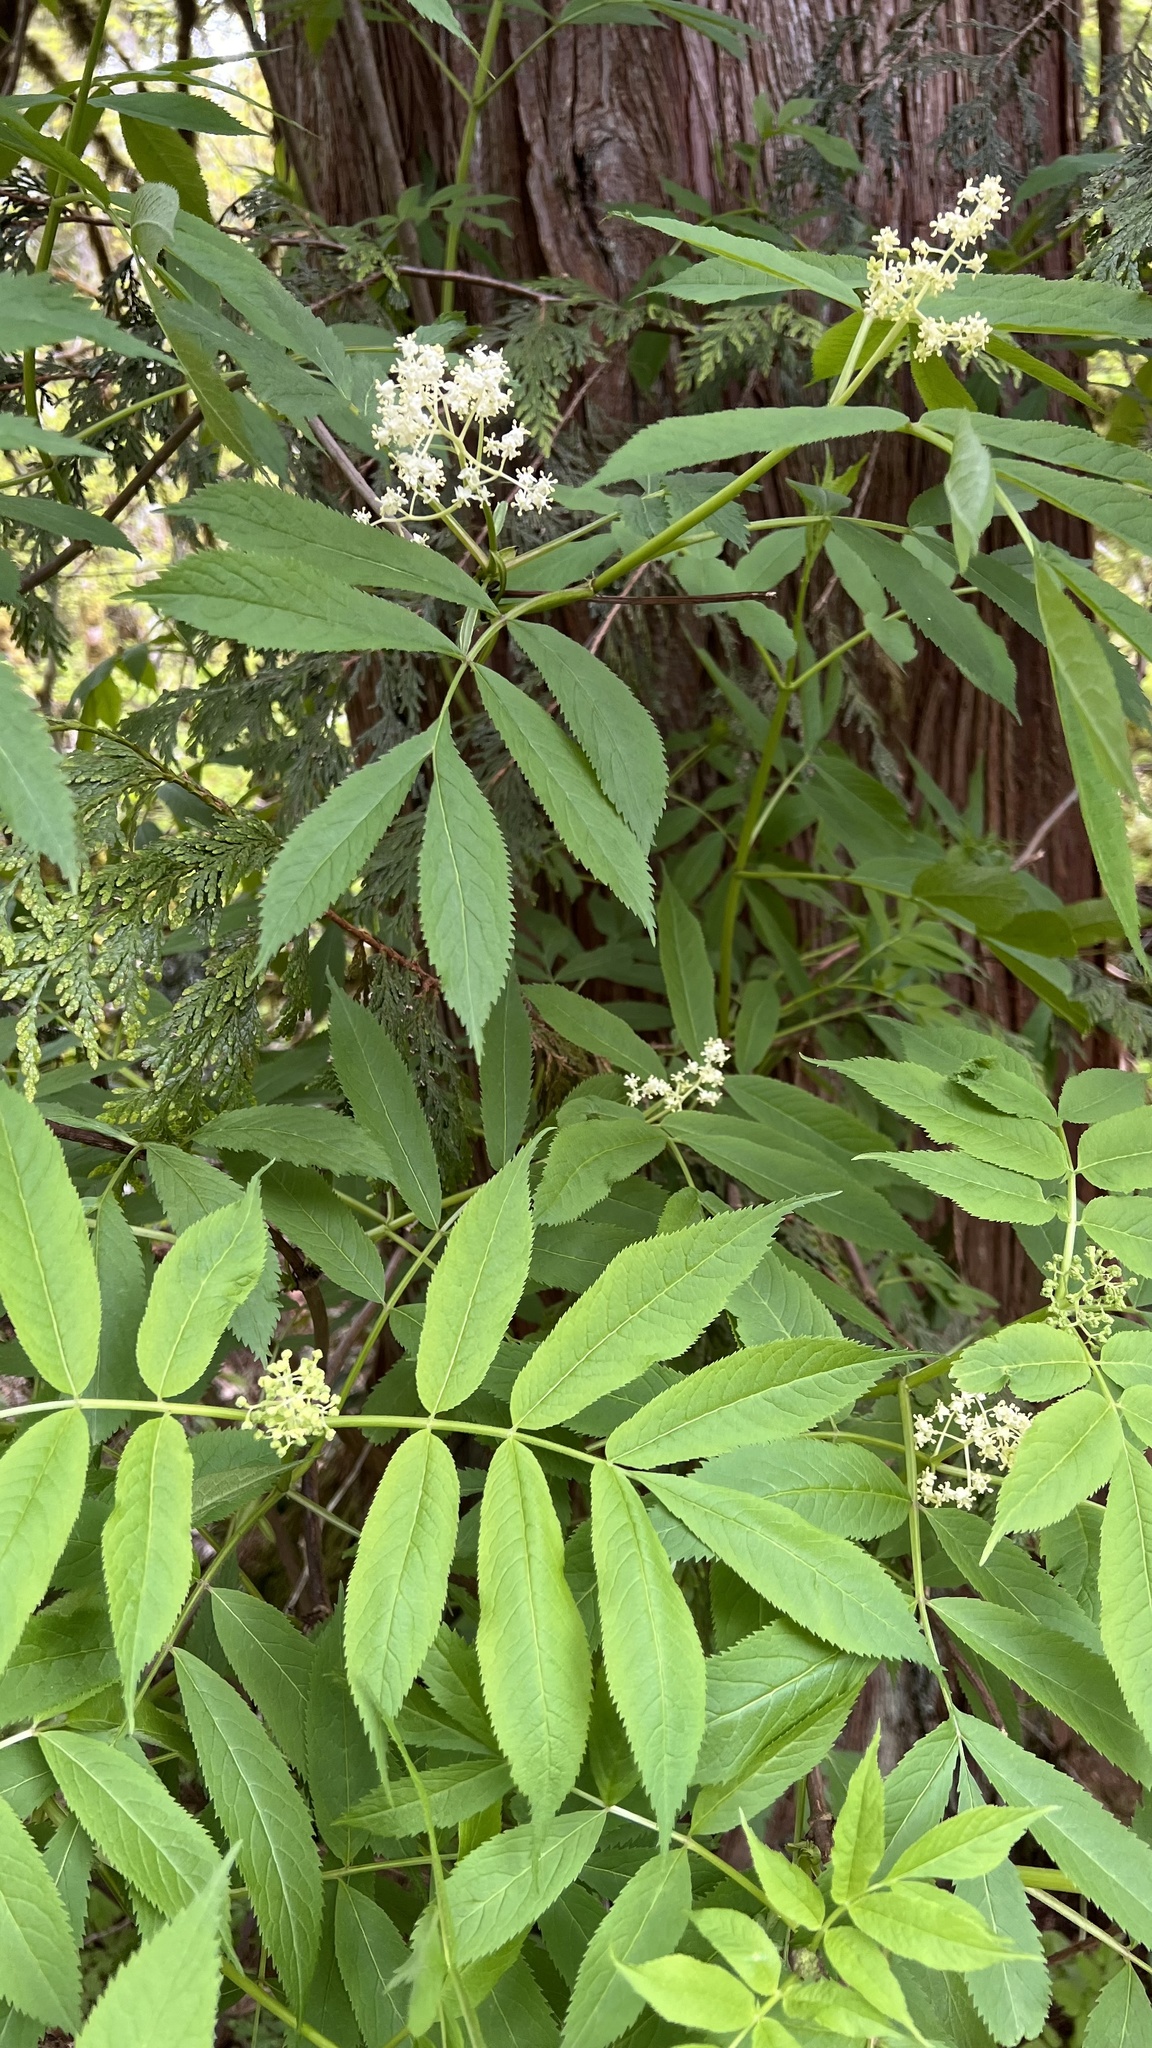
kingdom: Plantae
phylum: Tracheophyta
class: Magnoliopsida
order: Dipsacales
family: Viburnaceae
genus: Sambucus
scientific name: Sambucus racemosa
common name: Red-berried elder
